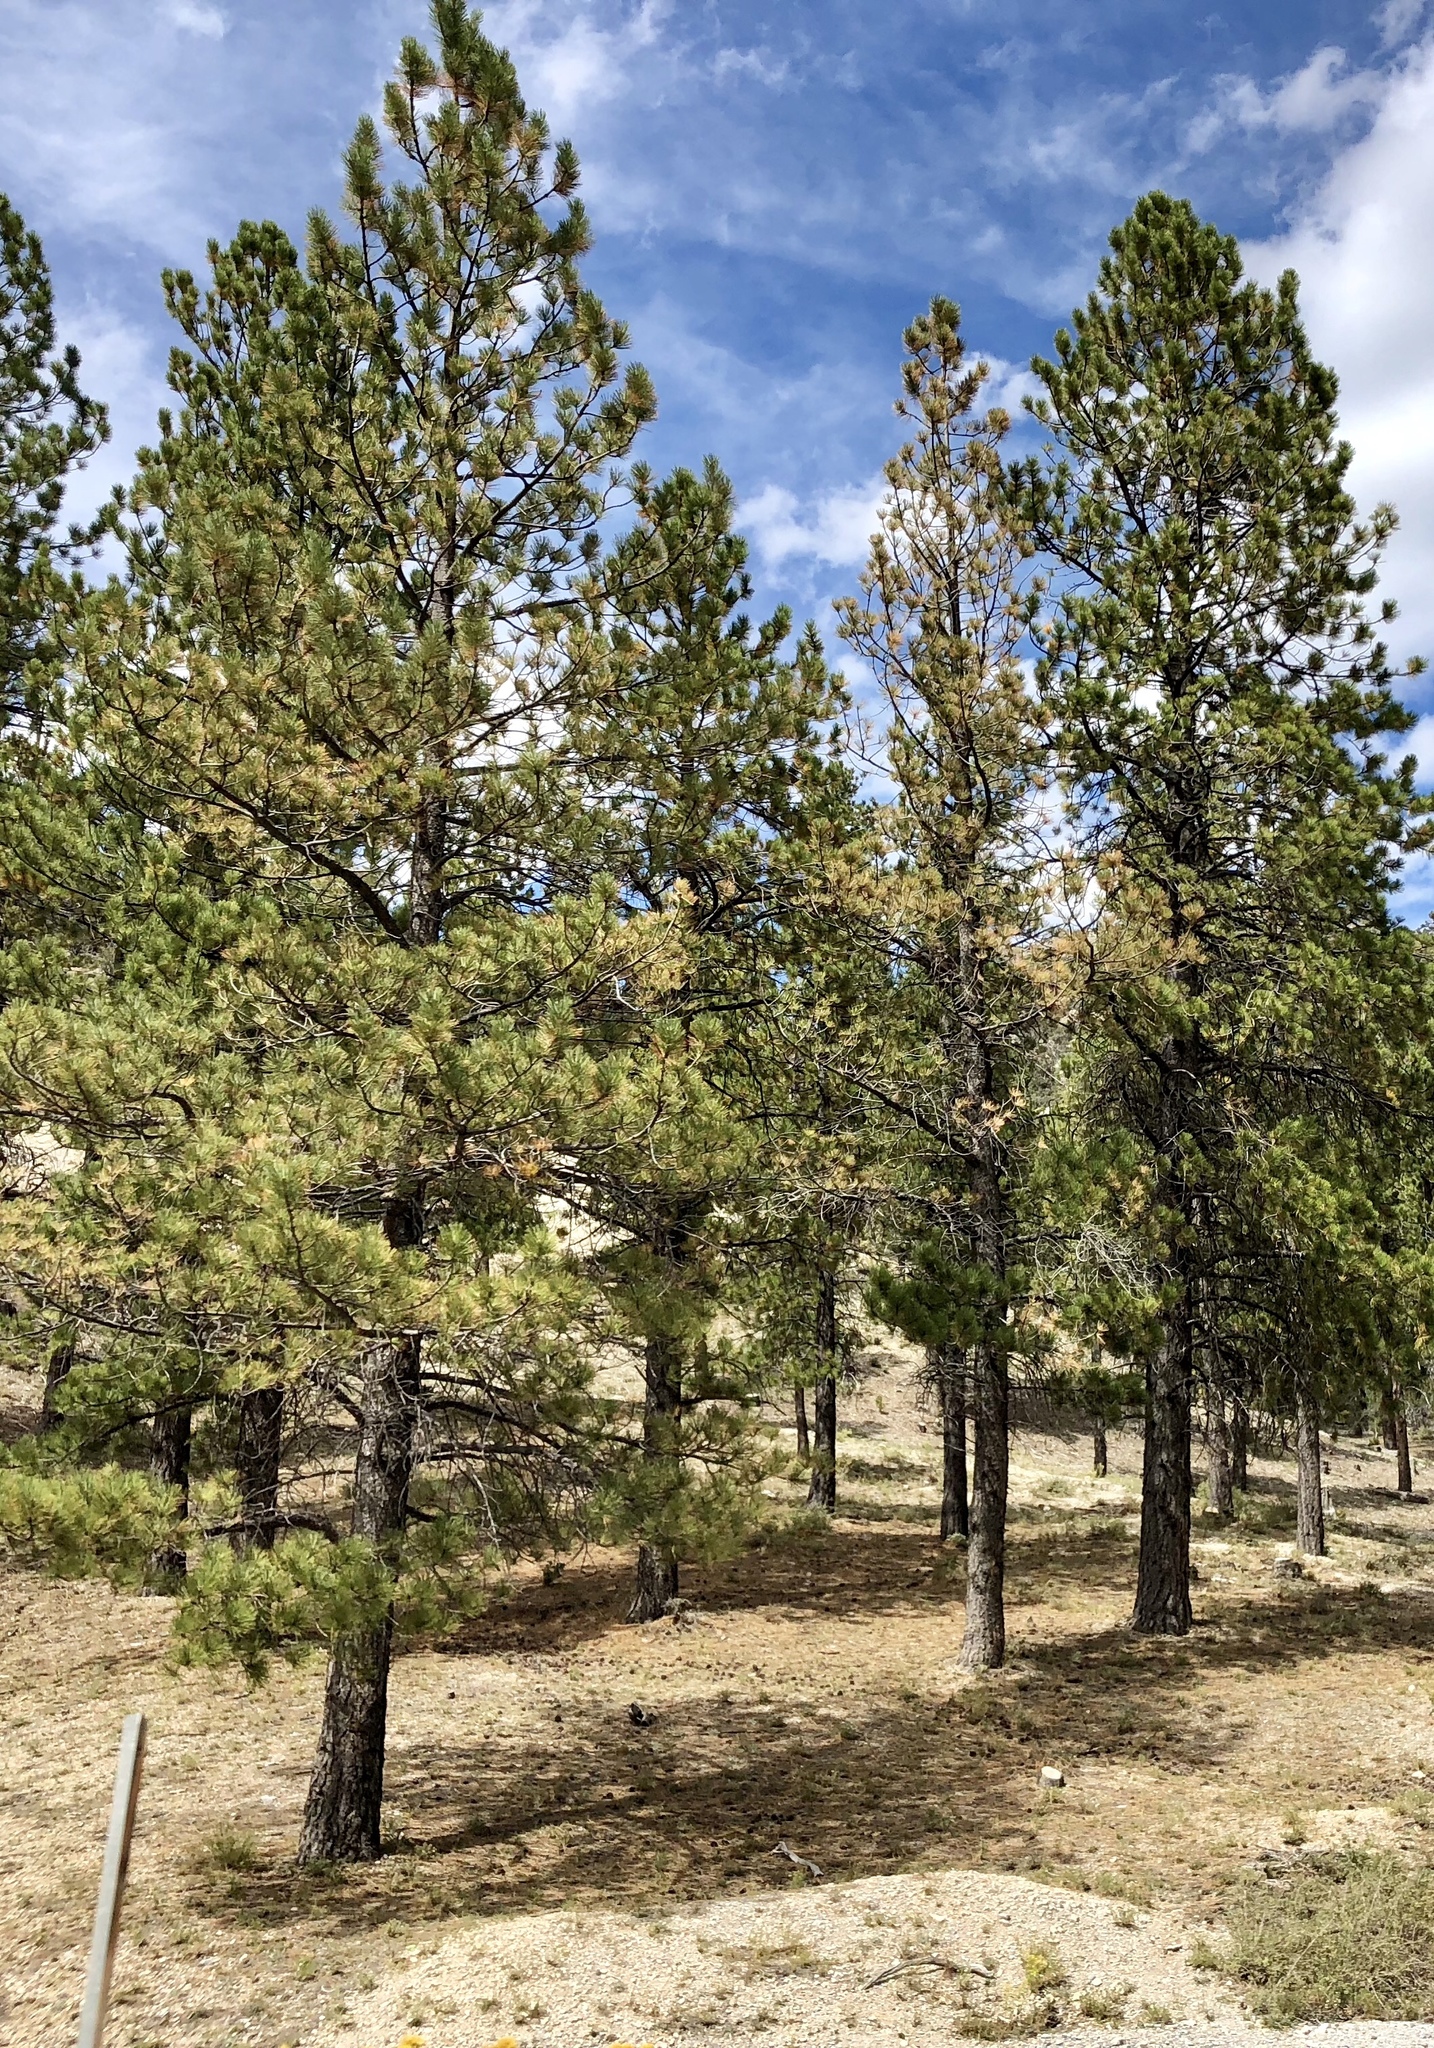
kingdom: Plantae
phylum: Tracheophyta
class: Pinopsida
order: Pinales
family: Pinaceae
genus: Pinus
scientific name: Pinus ponderosa
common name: Western yellow-pine
